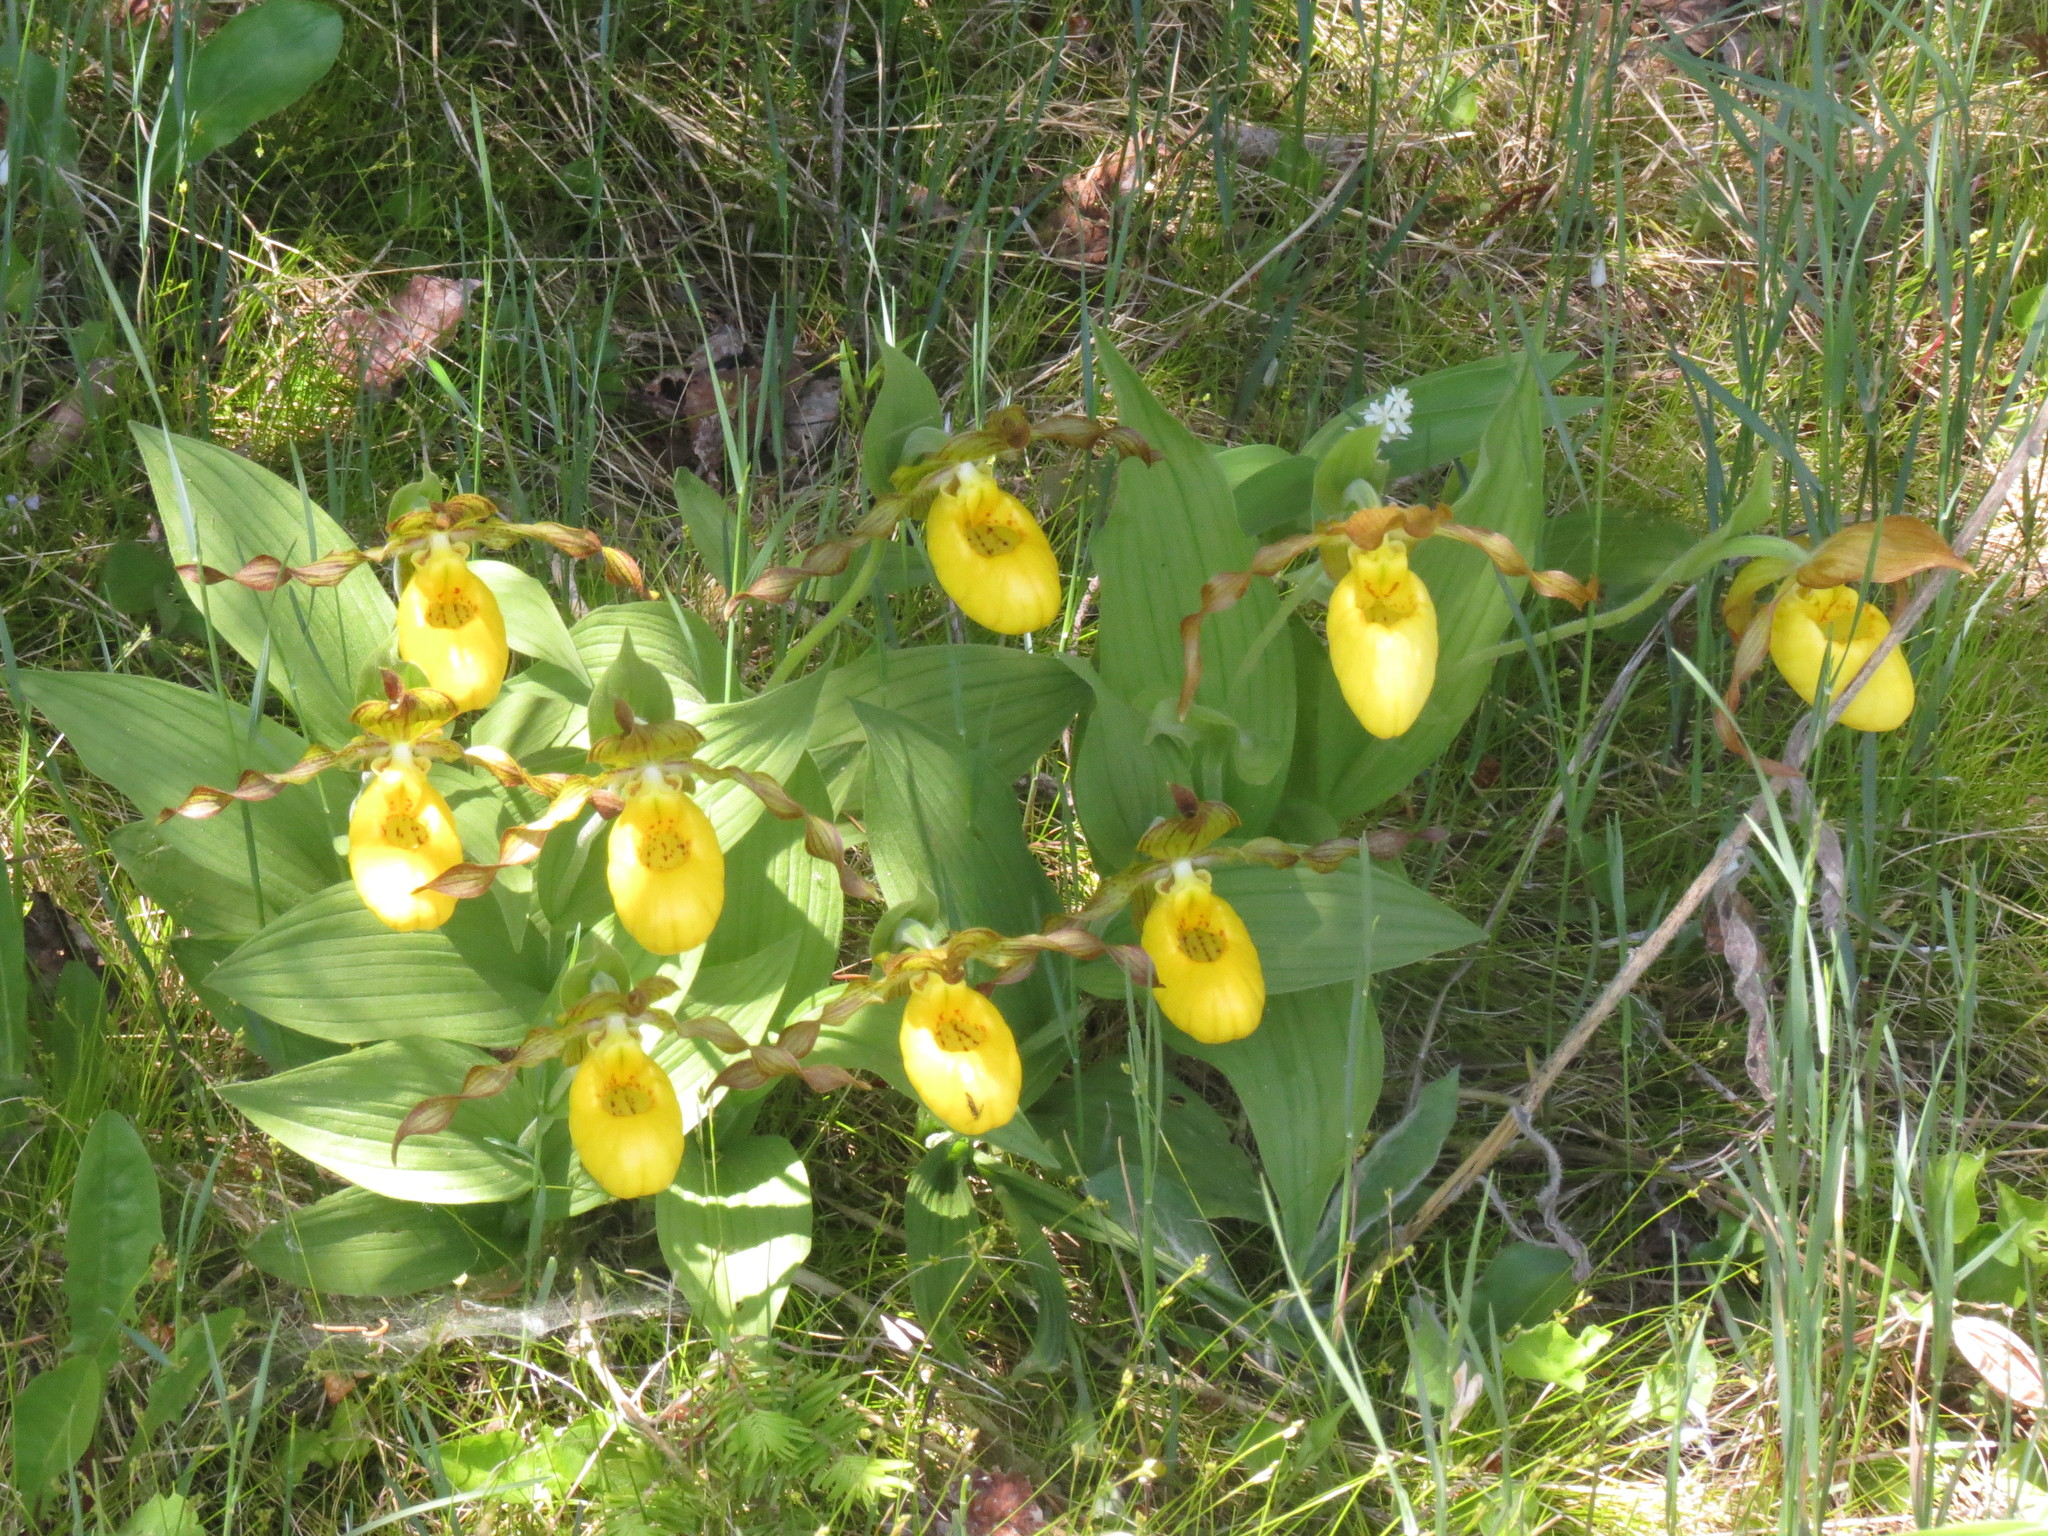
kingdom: Plantae
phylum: Tracheophyta
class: Liliopsida
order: Asparagales
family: Orchidaceae
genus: Cypripedium
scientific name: Cypripedium parviflorum
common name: American yellow lady's-slipper
